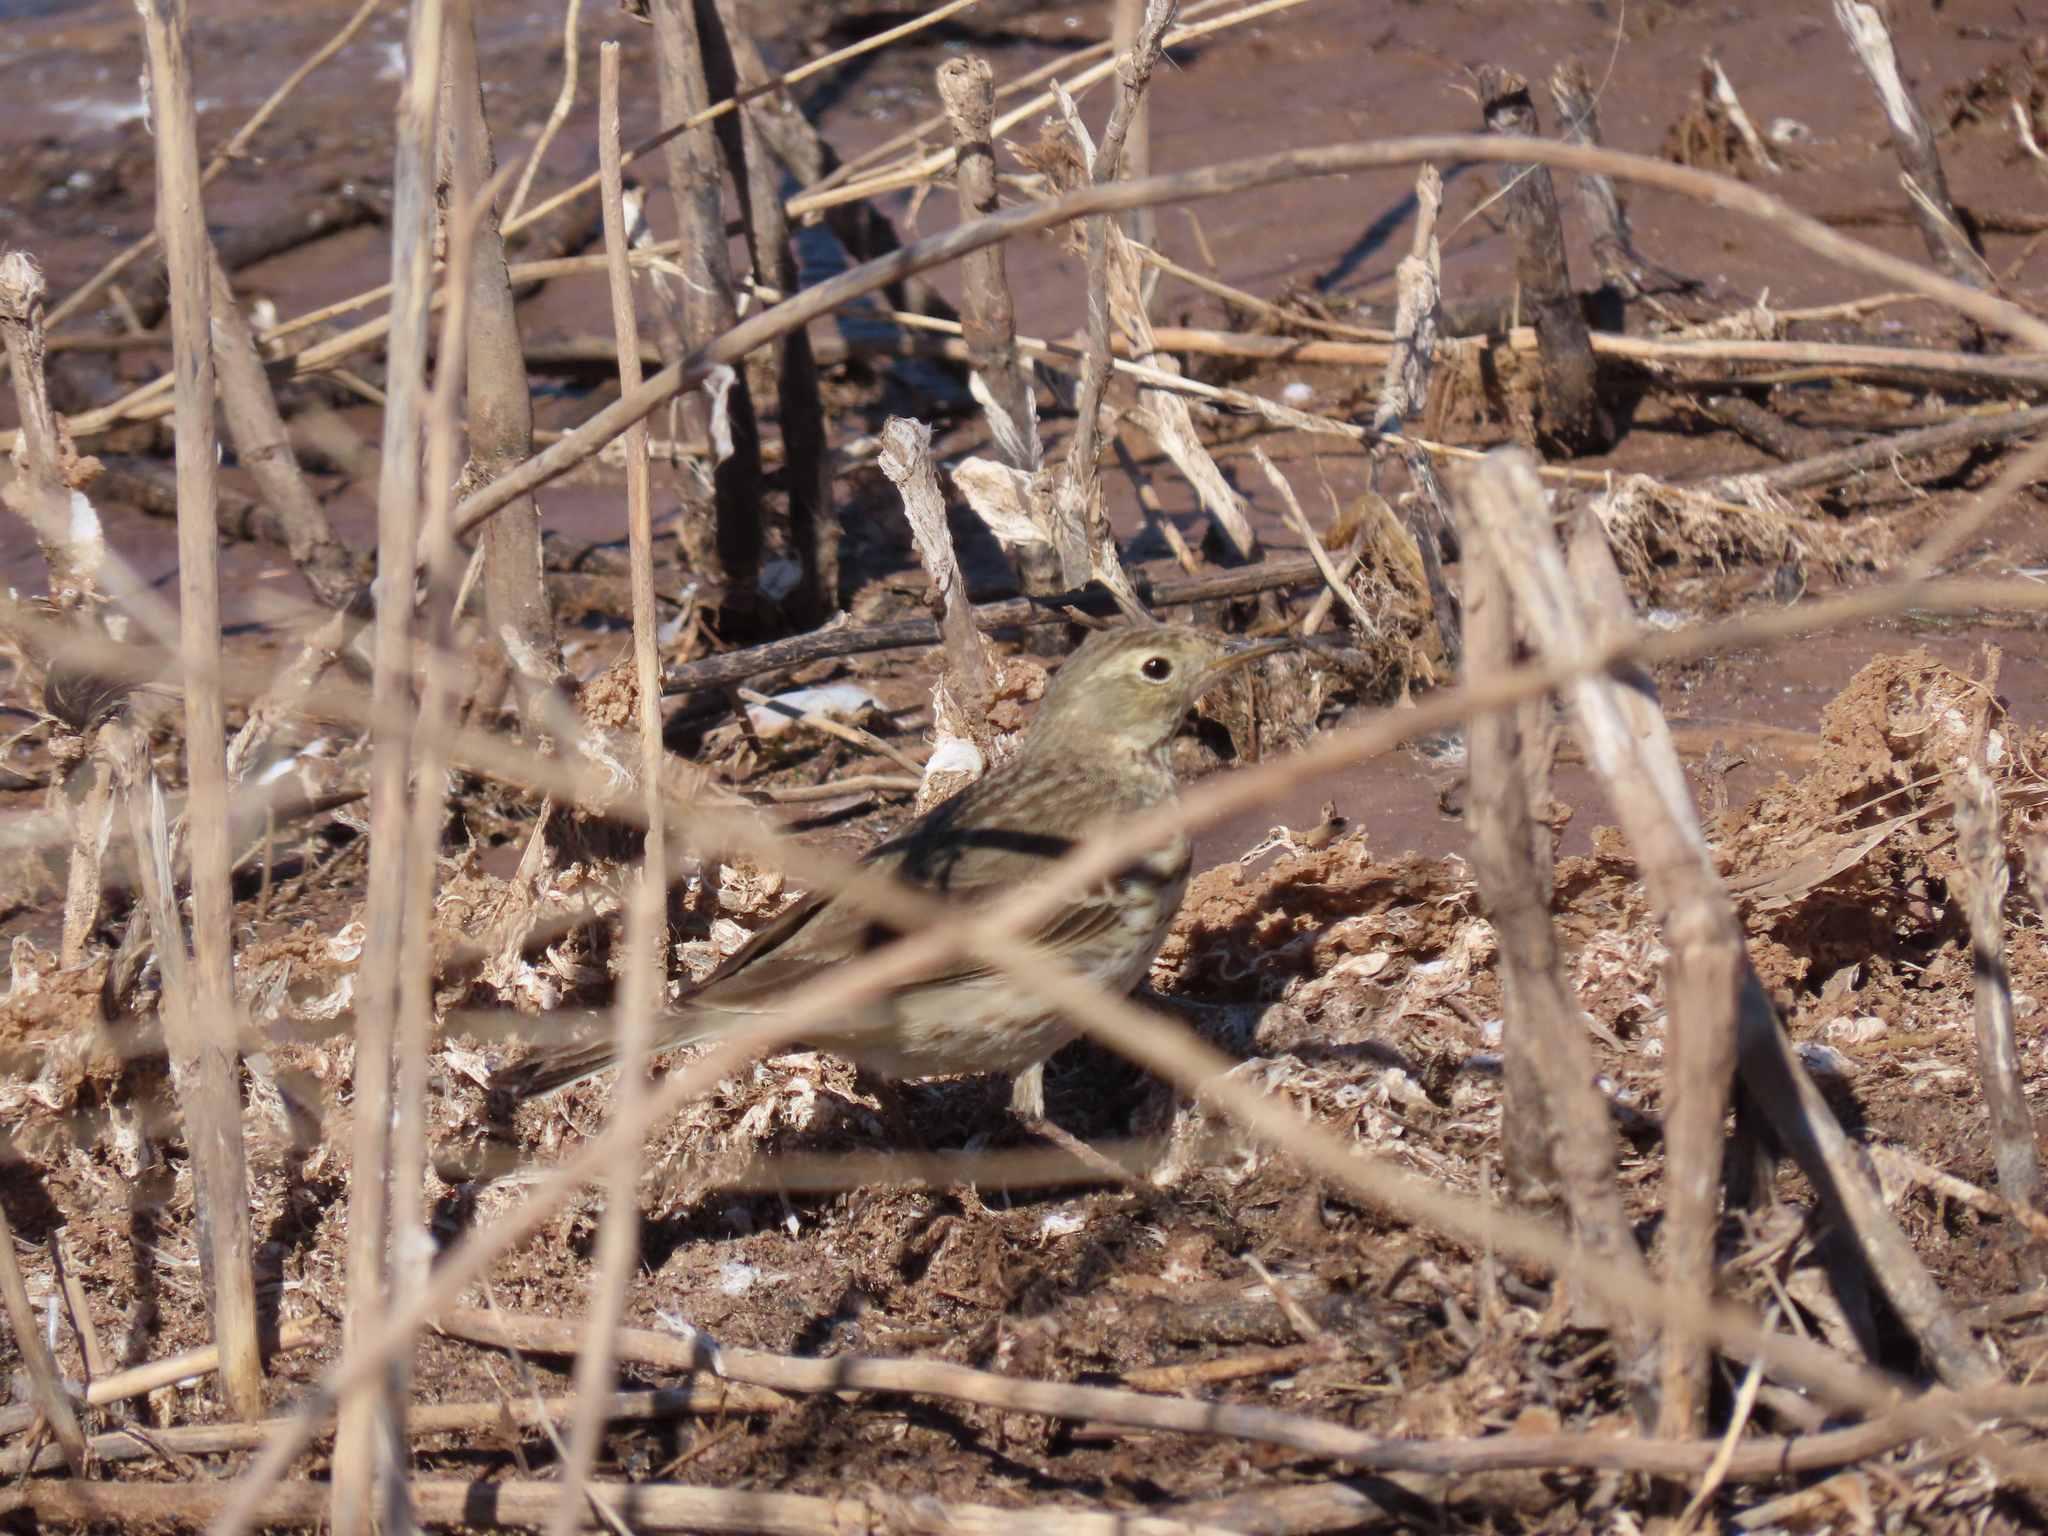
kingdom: Animalia
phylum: Chordata
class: Aves
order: Passeriformes
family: Motacillidae
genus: Anthus
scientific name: Anthus rubescens
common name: Buff-bellied pipit
